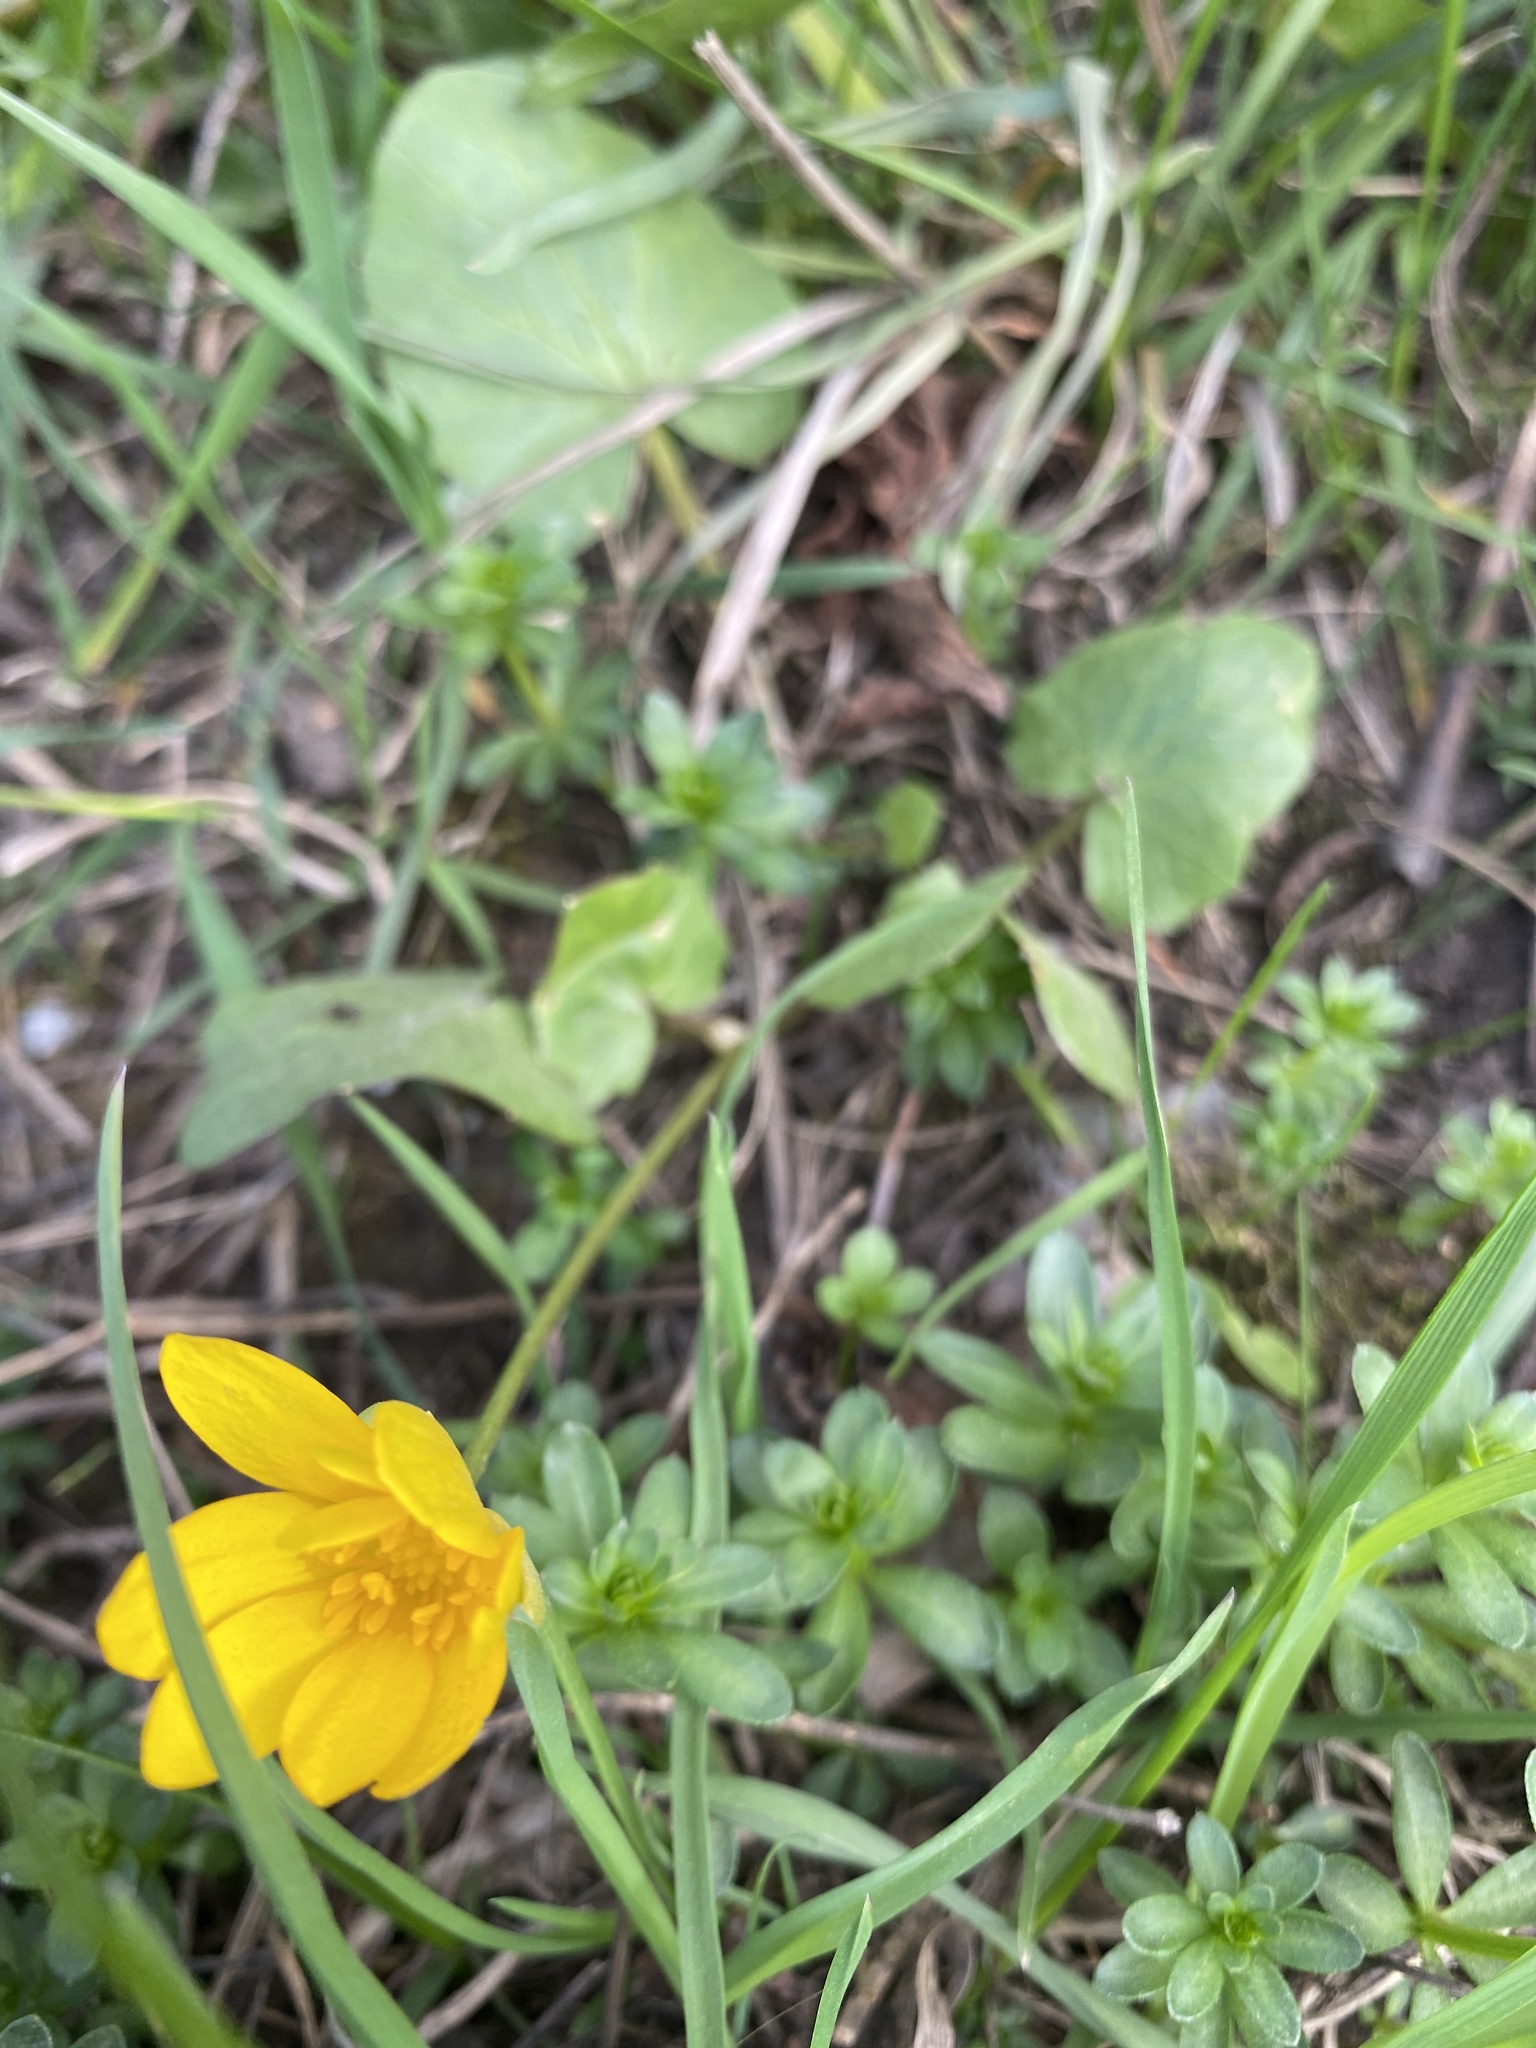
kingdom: Plantae
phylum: Tracheophyta
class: Magnoliopsida
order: Ranunculales
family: Ranunculaceae
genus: Ficaria
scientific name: Ficaria verna
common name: Lesser celandine
